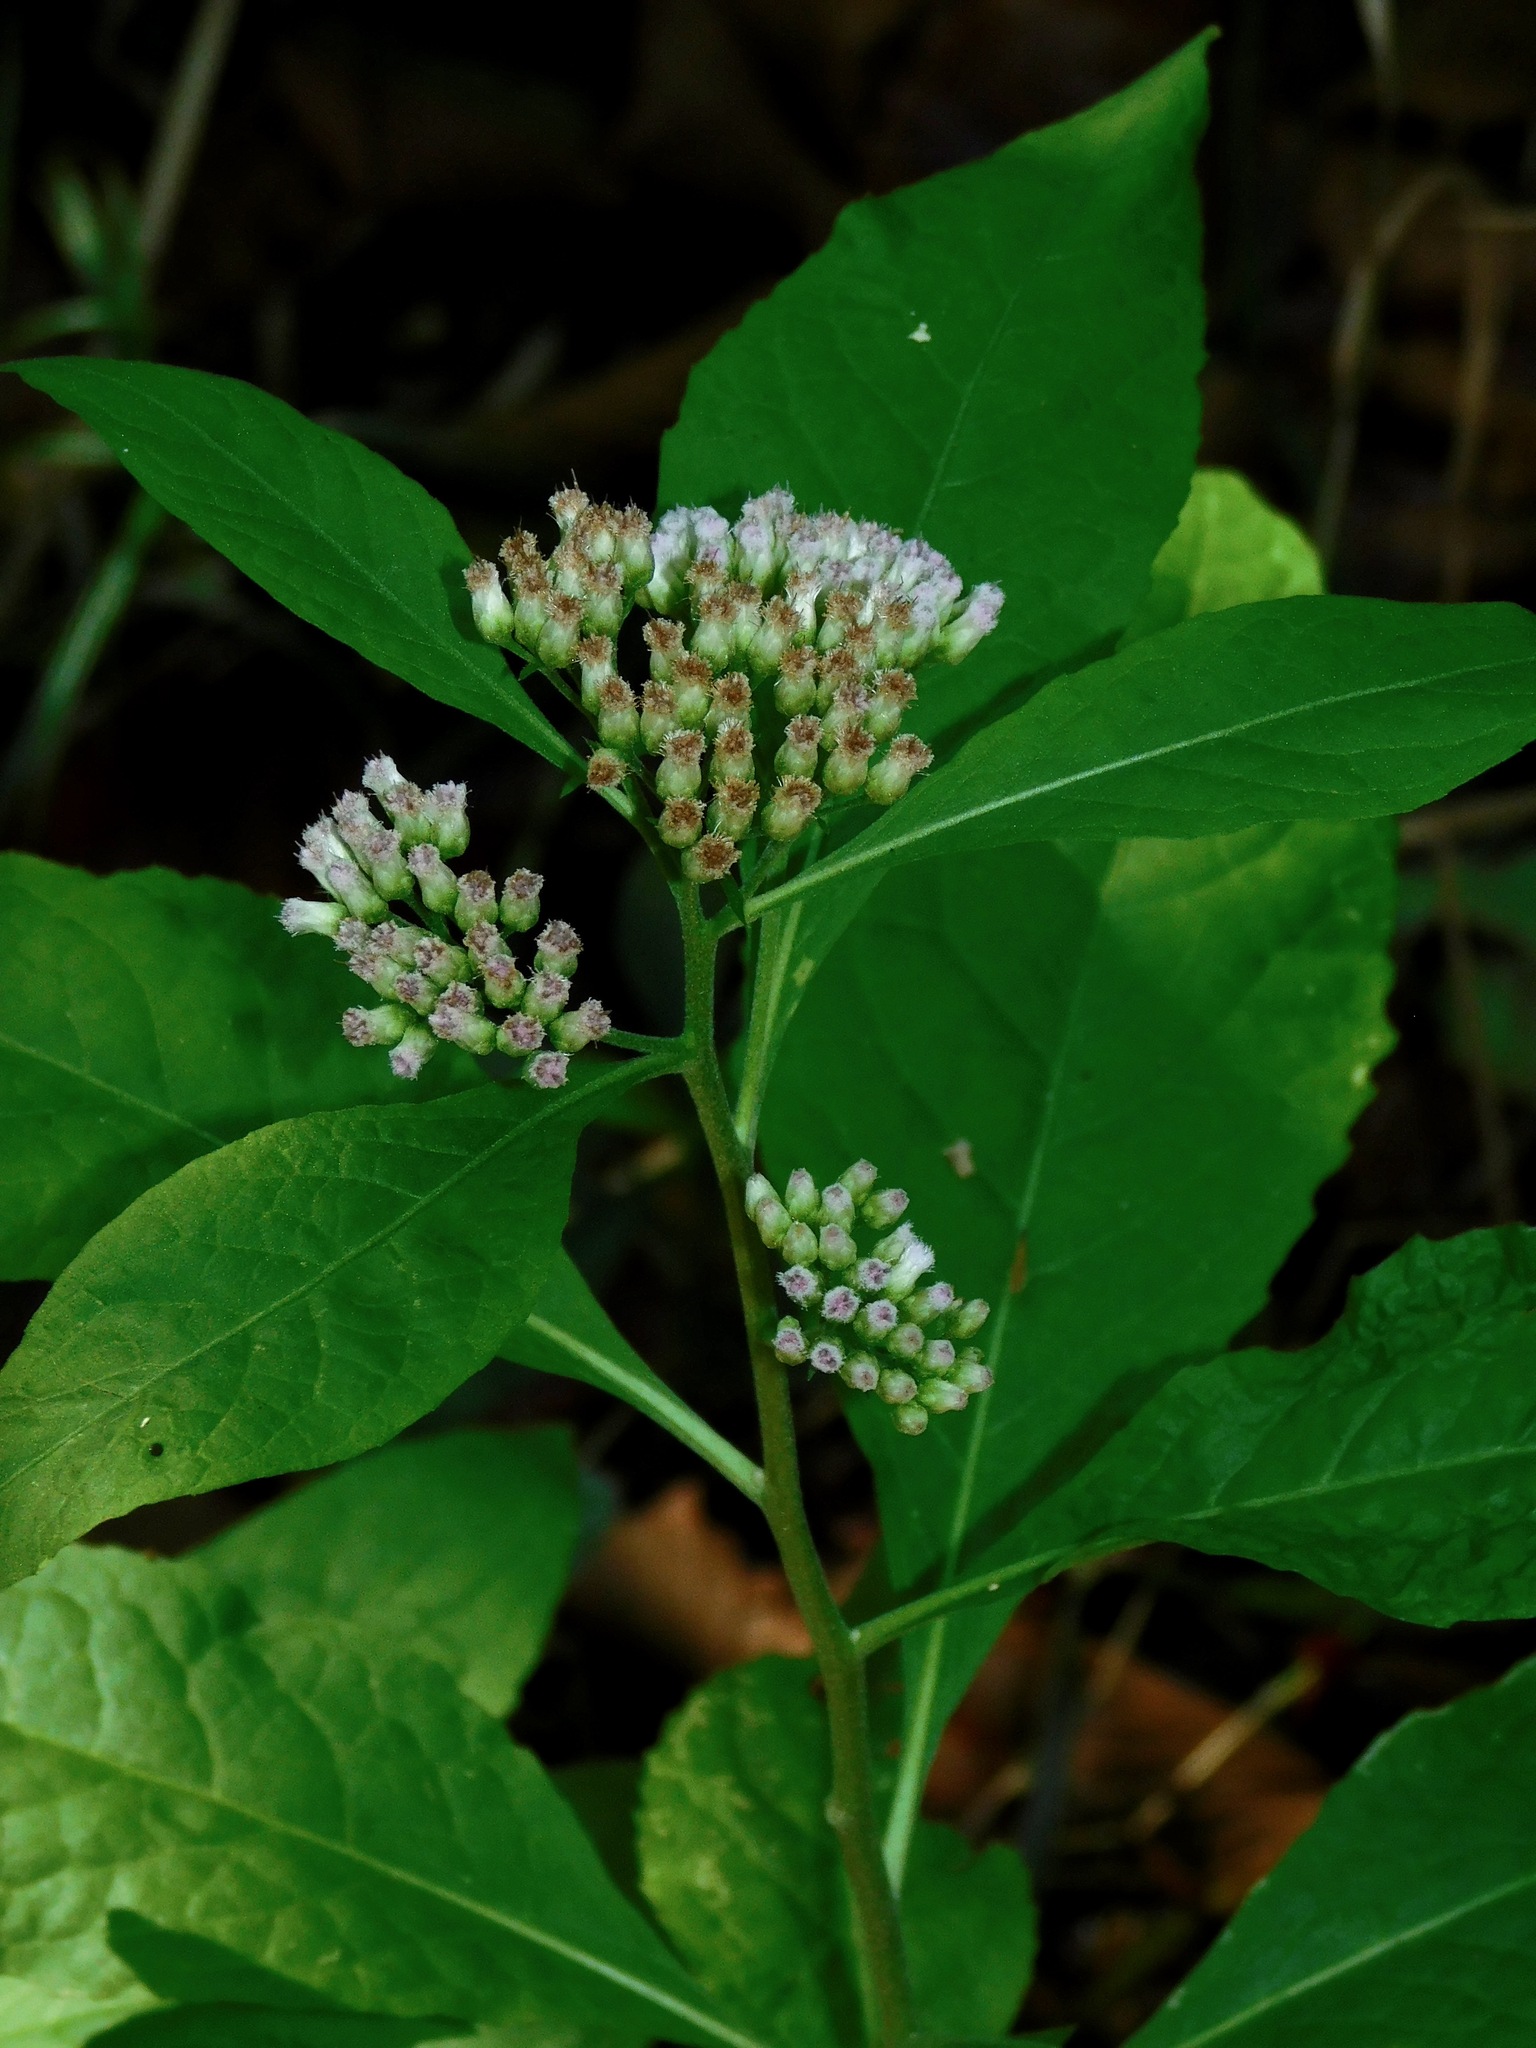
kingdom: Plantae
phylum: Tracheophyta
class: Magnoliopsida
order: Asterales
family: Asteraceae
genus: Pluchea
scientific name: Pluchea odorata
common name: Saltmarsh fleabane
